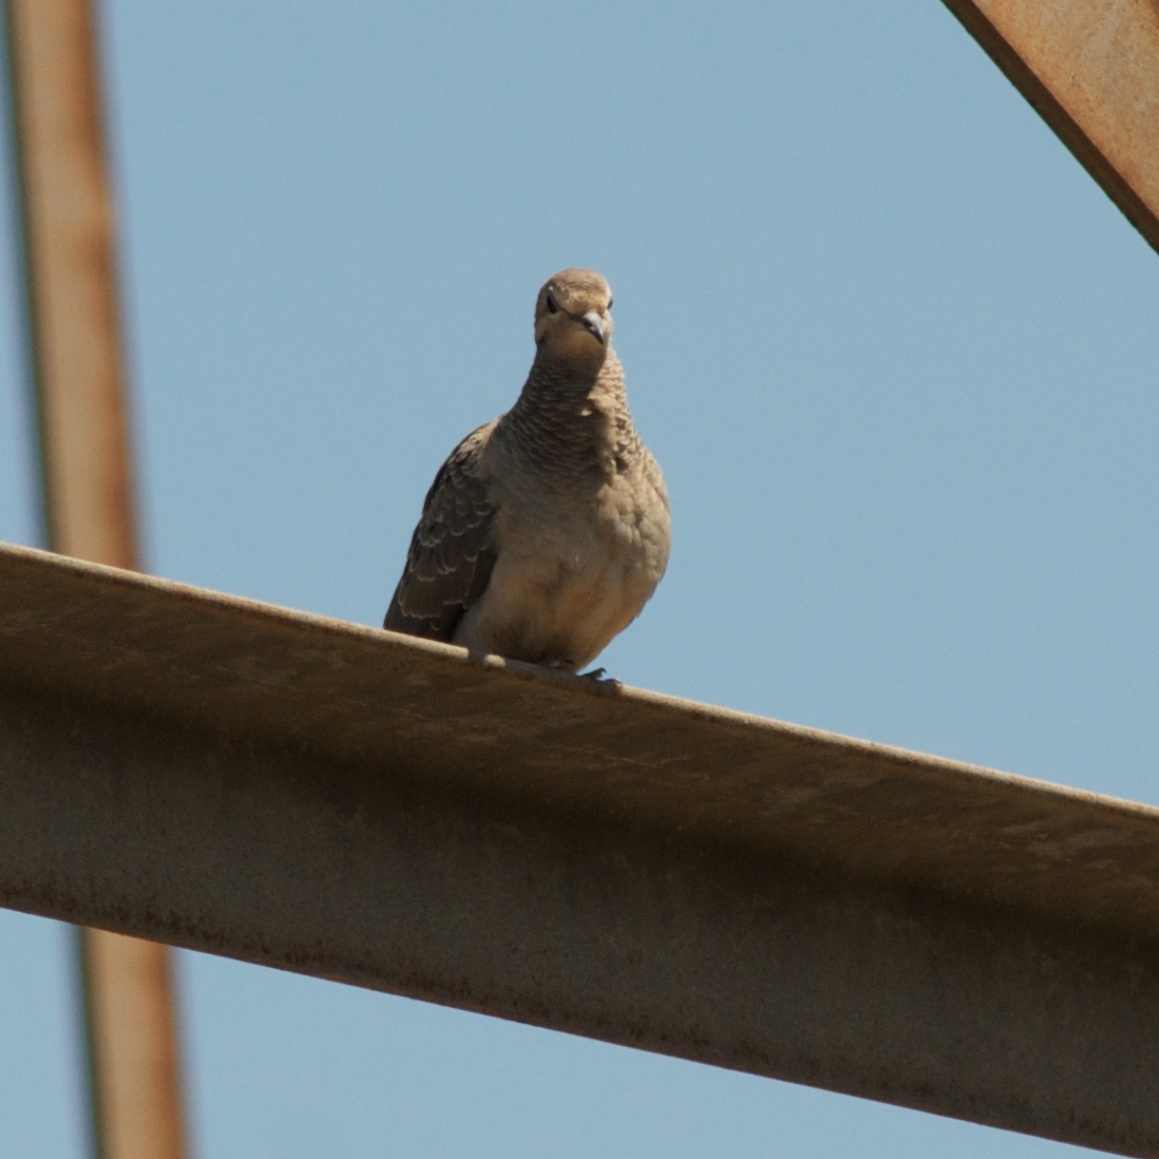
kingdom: Animalia
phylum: Chordata
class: Aves
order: Columbiformes
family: Columbidae
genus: Zenaida
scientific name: Zenaida macroura
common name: Mourning dove
